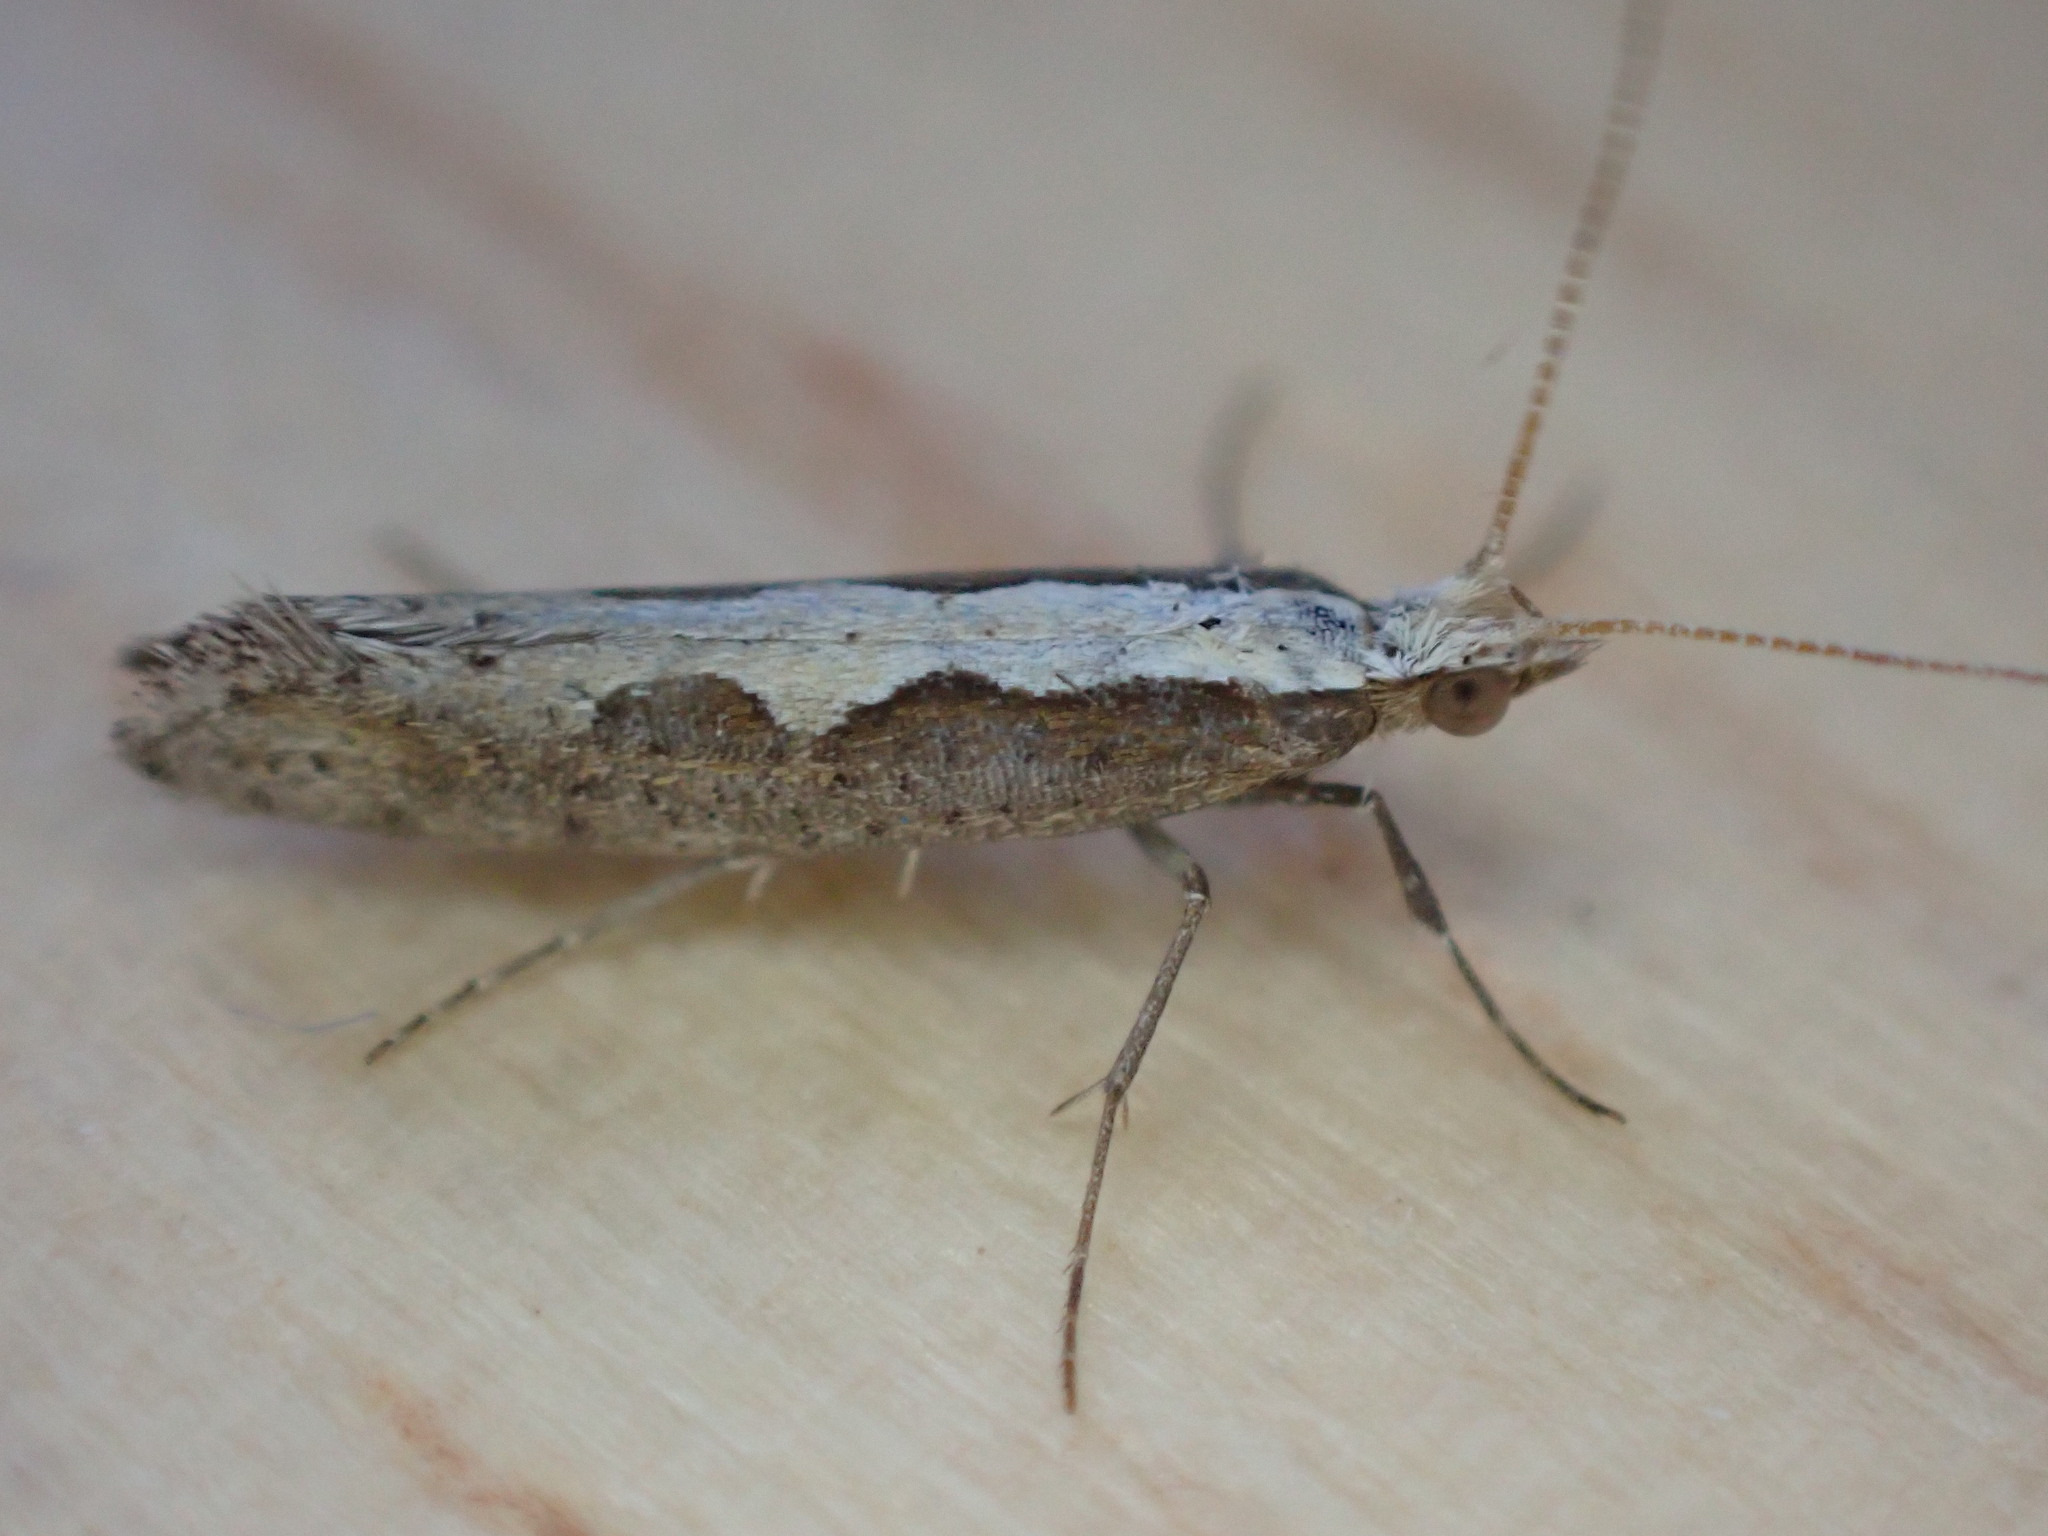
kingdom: Animalia
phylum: Arthropoda
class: Insecta
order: Lepidoptera
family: Plutellidae
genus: Plutella
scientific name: Plutella xylostella
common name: Diamond-back moth
